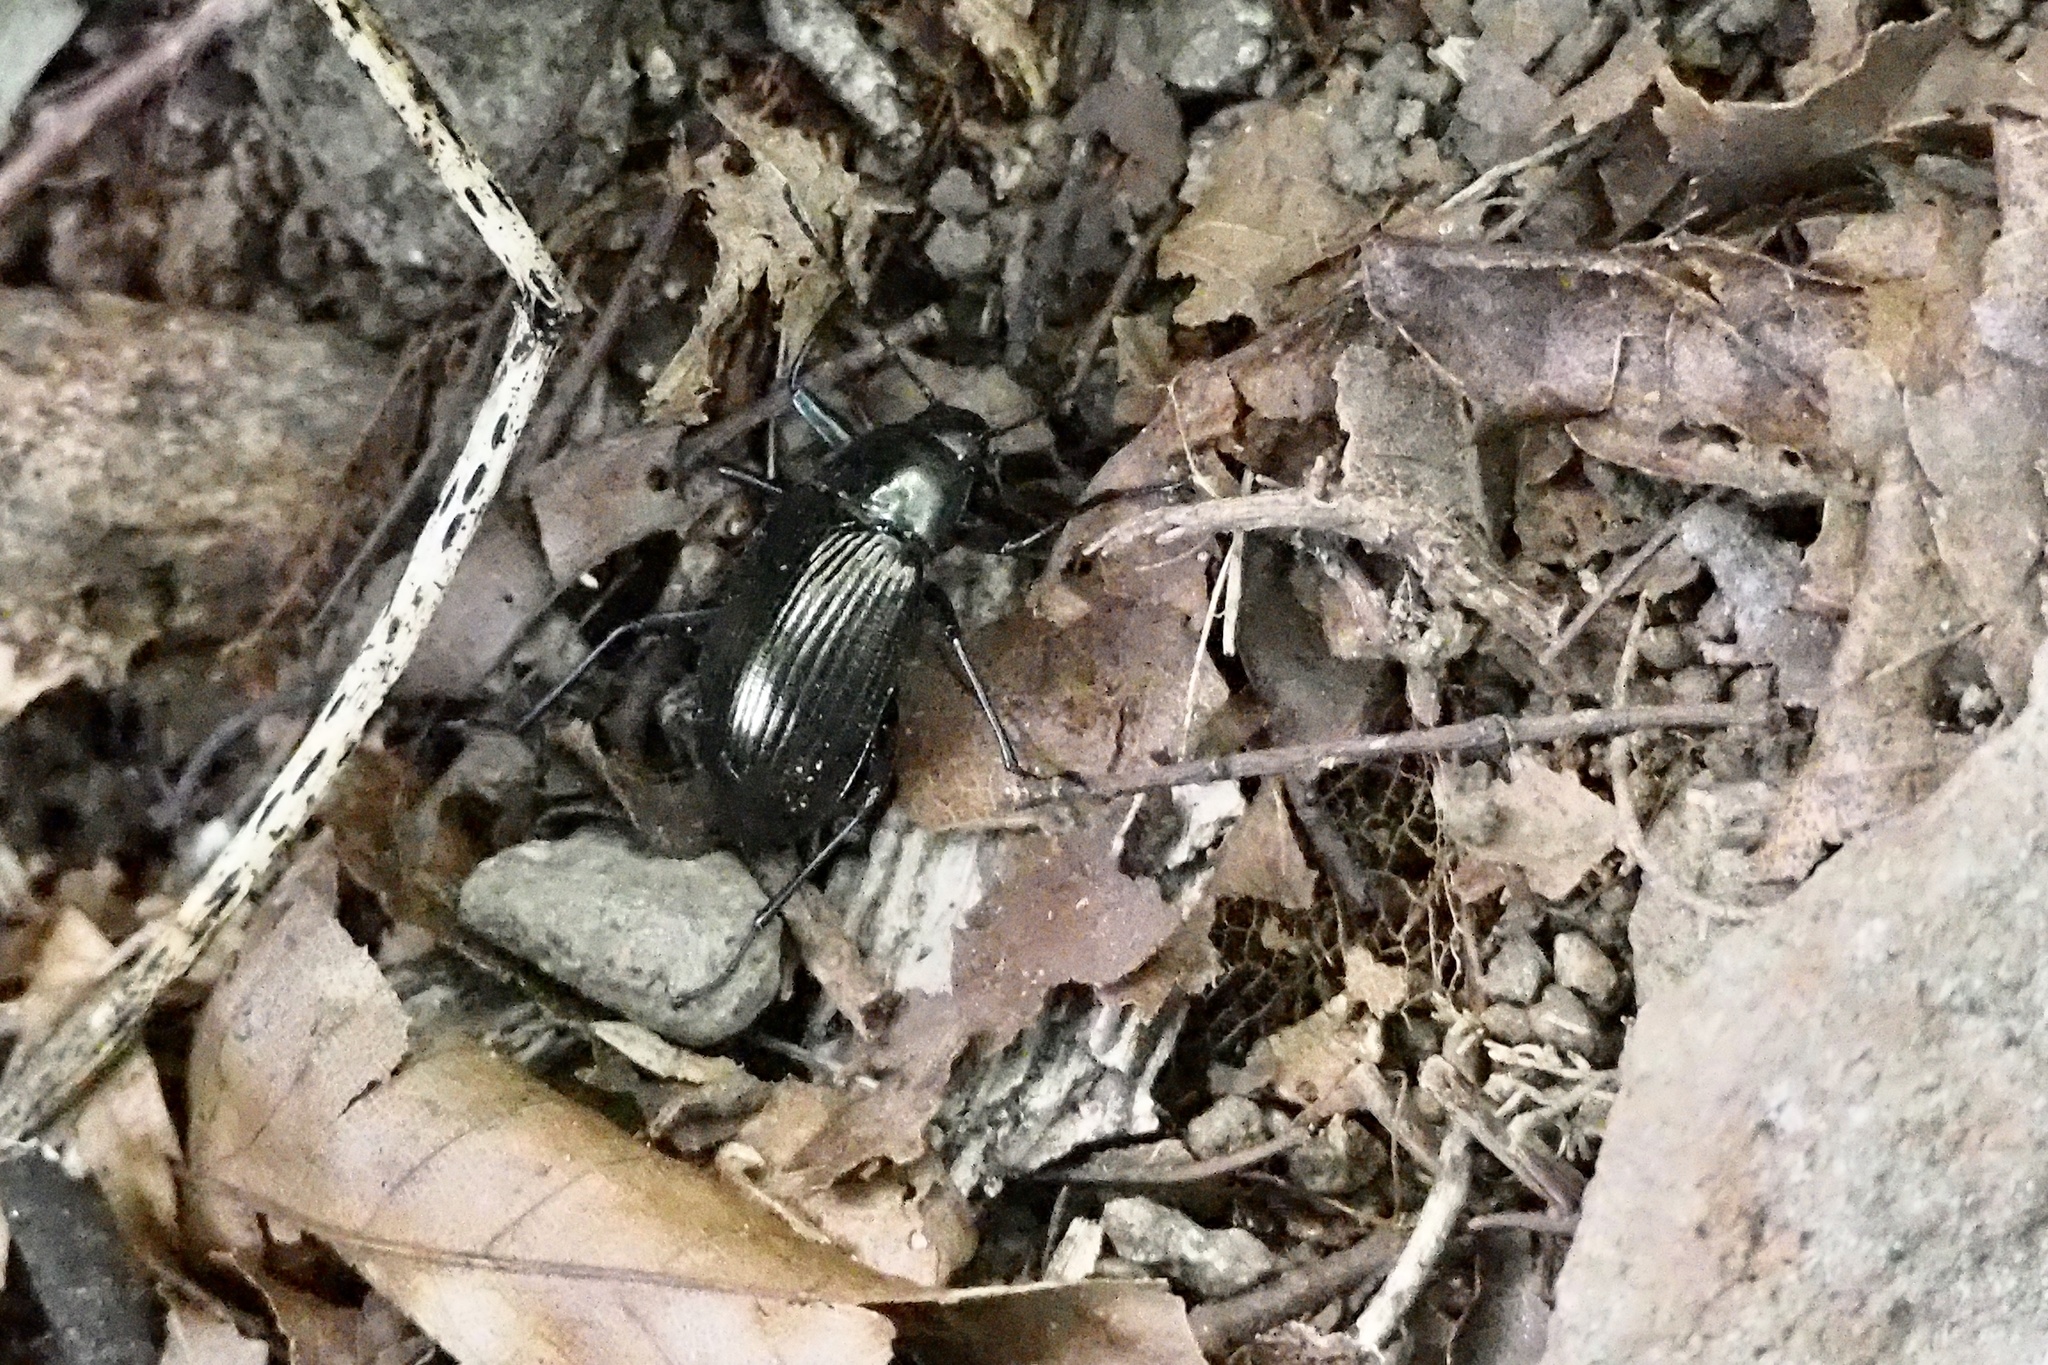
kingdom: Animalia
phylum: Arthropoda
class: Insecta
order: Coleoptera
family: Tenebrionidae
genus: Plesiophthalmus
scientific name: Plesiophthalmus
